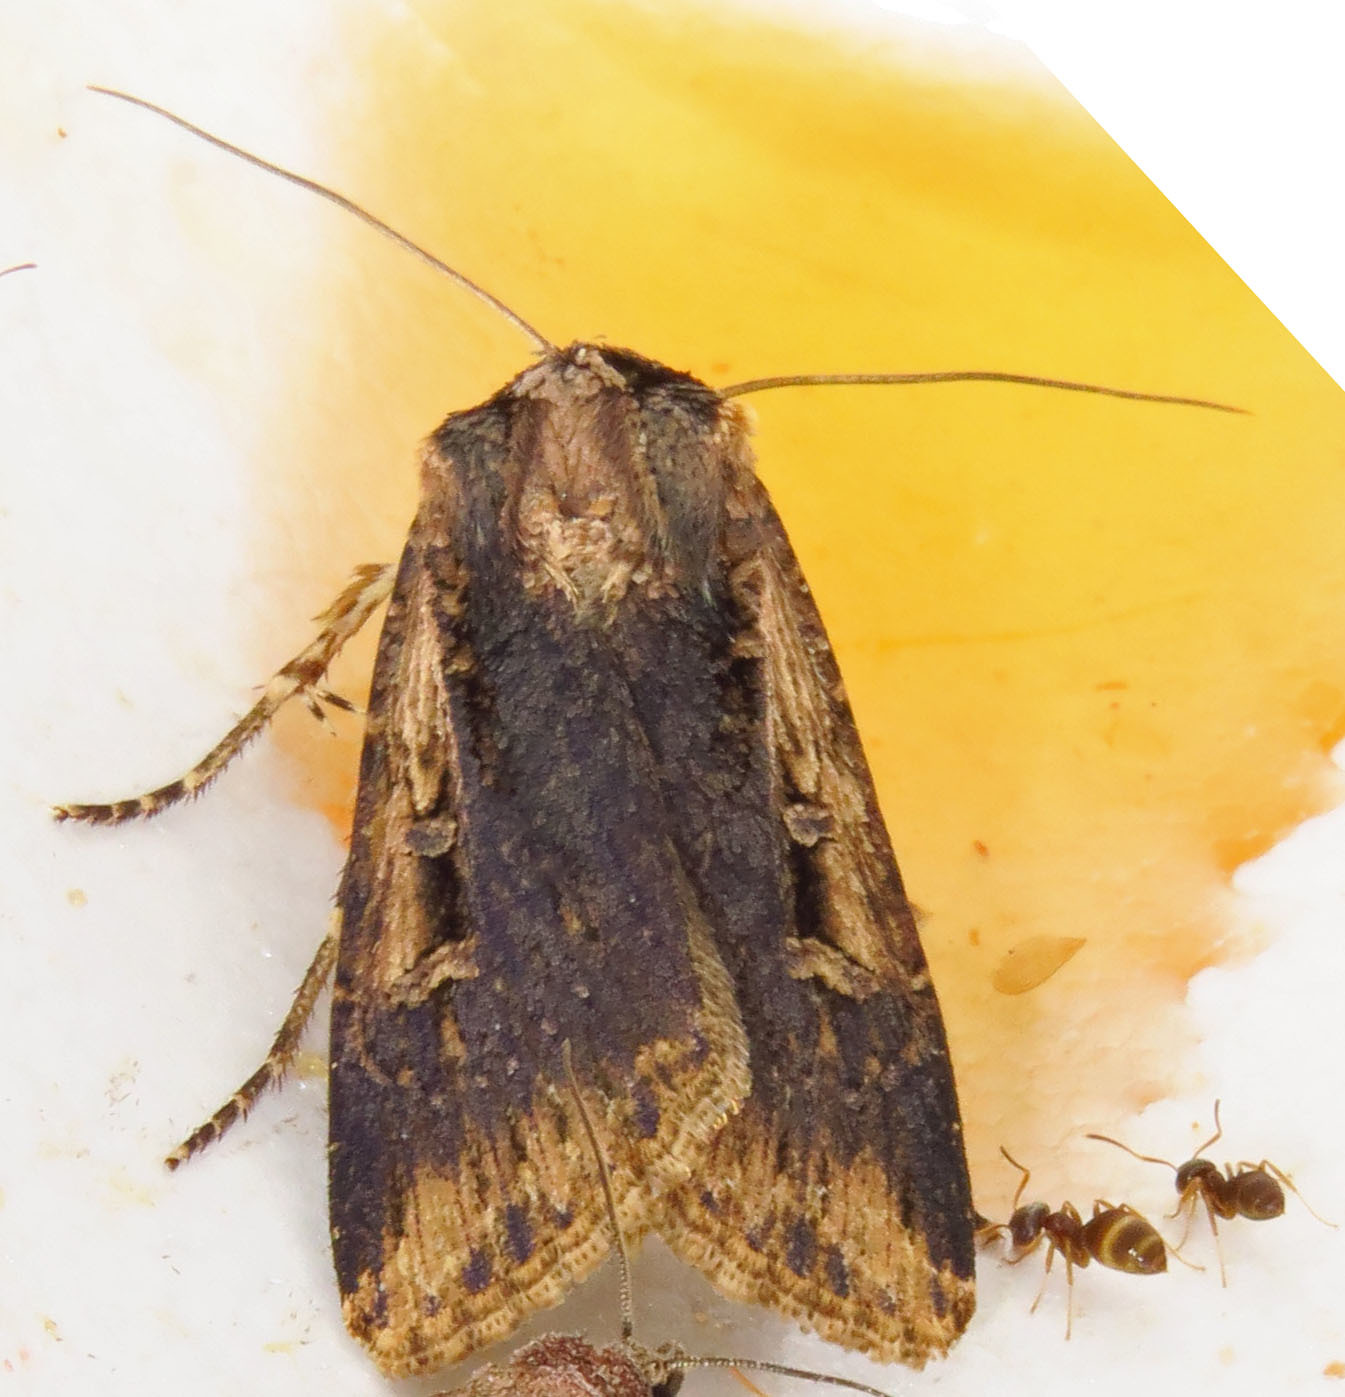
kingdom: Animalia
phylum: Arthropoda
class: Insecta
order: Lepidoptera
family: Noctuidae
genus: Feltia
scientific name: Feltia subterranea
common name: Granulate cutworm
